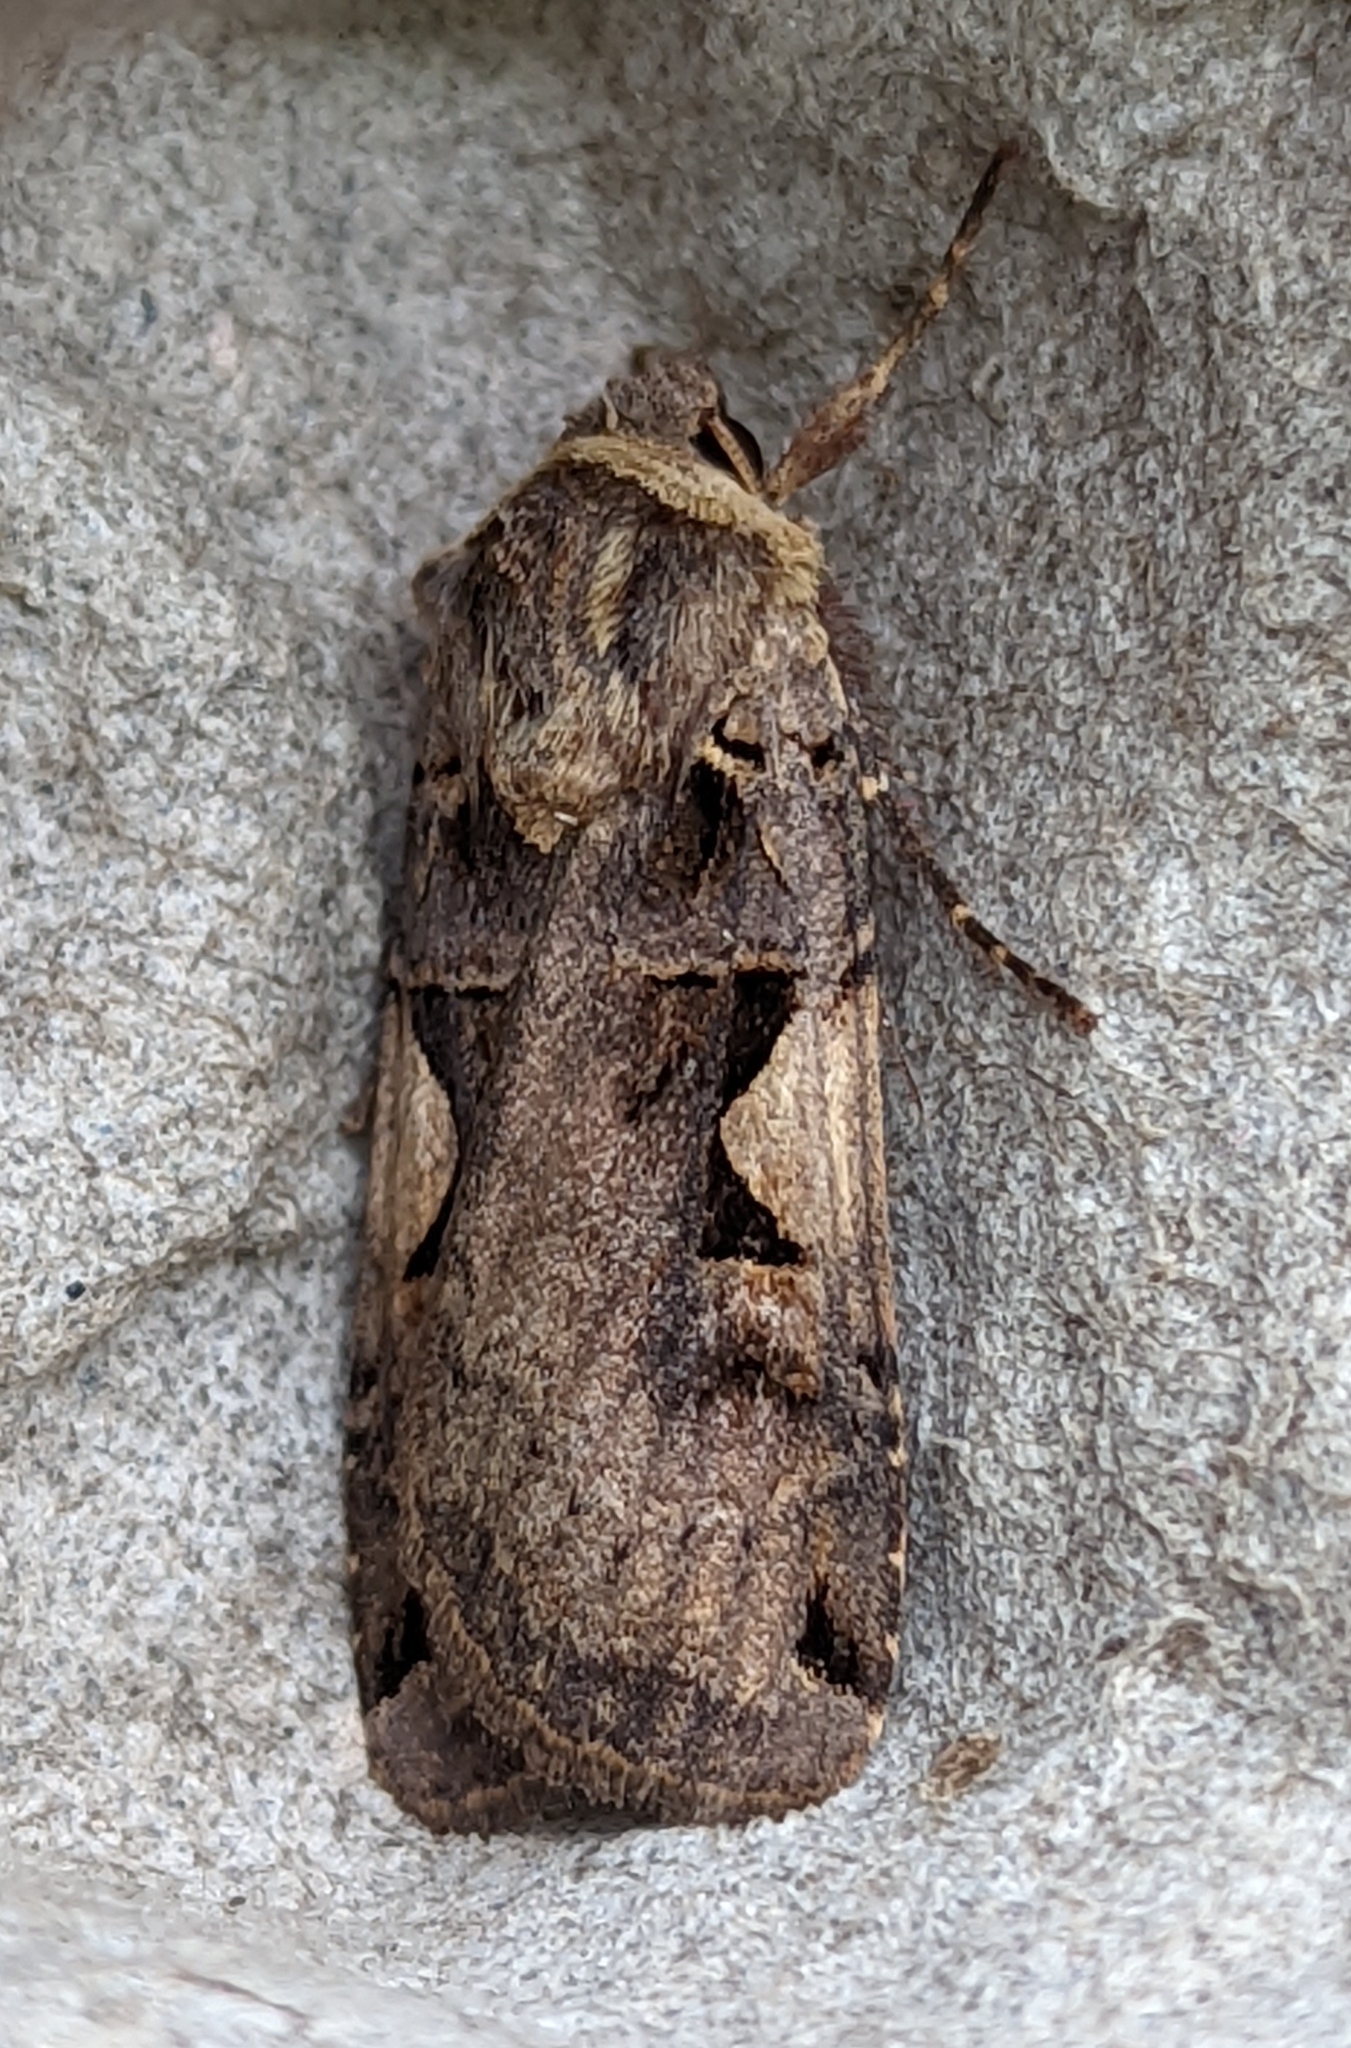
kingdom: Animalia
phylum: Arthropoda
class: Insecta
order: Lepidoptera
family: Noctuidae
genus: Xestia
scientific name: Xestia c-nigrum
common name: Setaceous hebrew character
